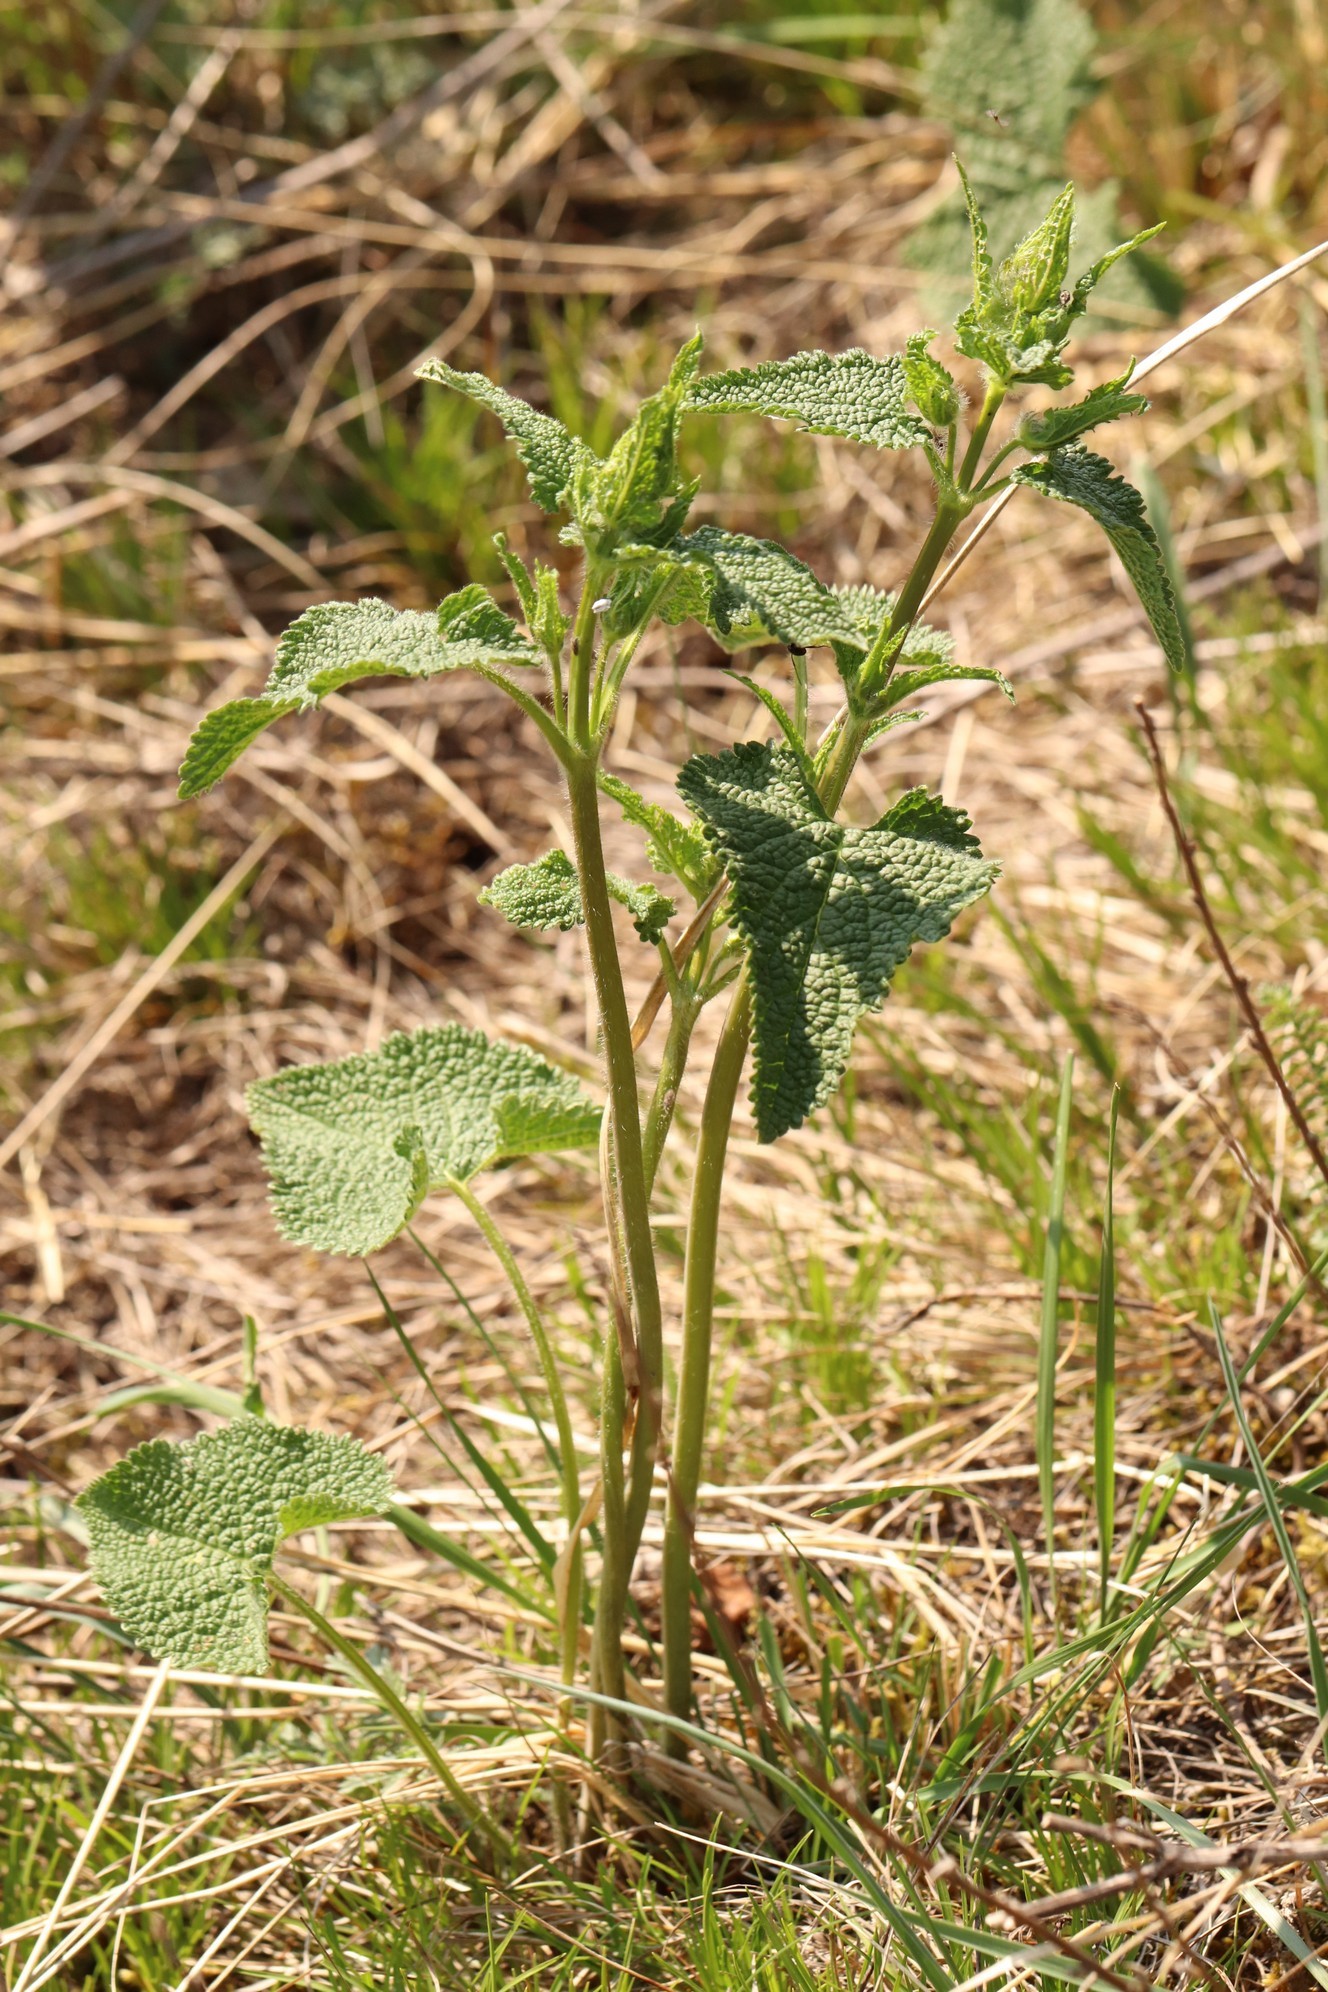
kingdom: Plantae
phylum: Tracheophyta
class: Magnoliopsida
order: Lamiales
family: Lamiaceae
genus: Phlomoides
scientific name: Phlomoides tuberosa
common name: Tuberous jerusalem sage
